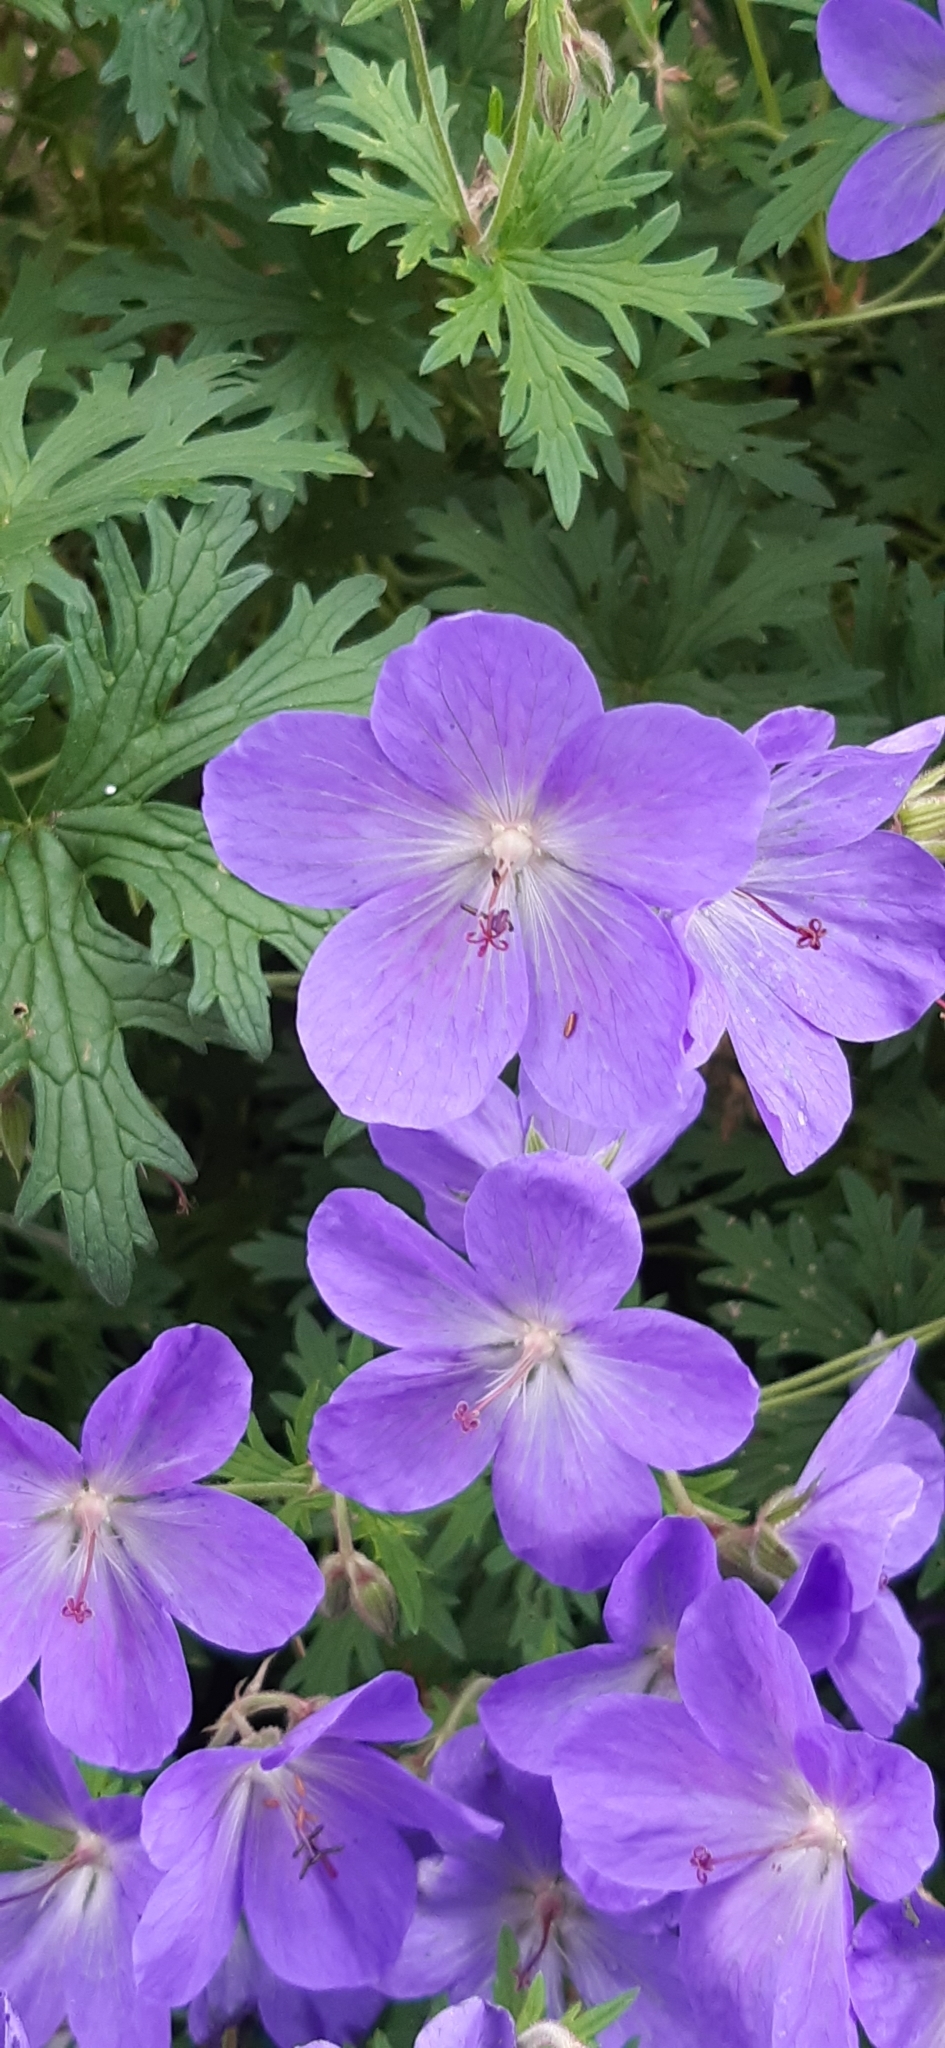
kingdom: Plantae
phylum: Tracheophyta
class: Magnoliopsida
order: Geraniales
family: Geraniaceae
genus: Geranium
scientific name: Geranium pratense
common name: Meadow crane's-bill
